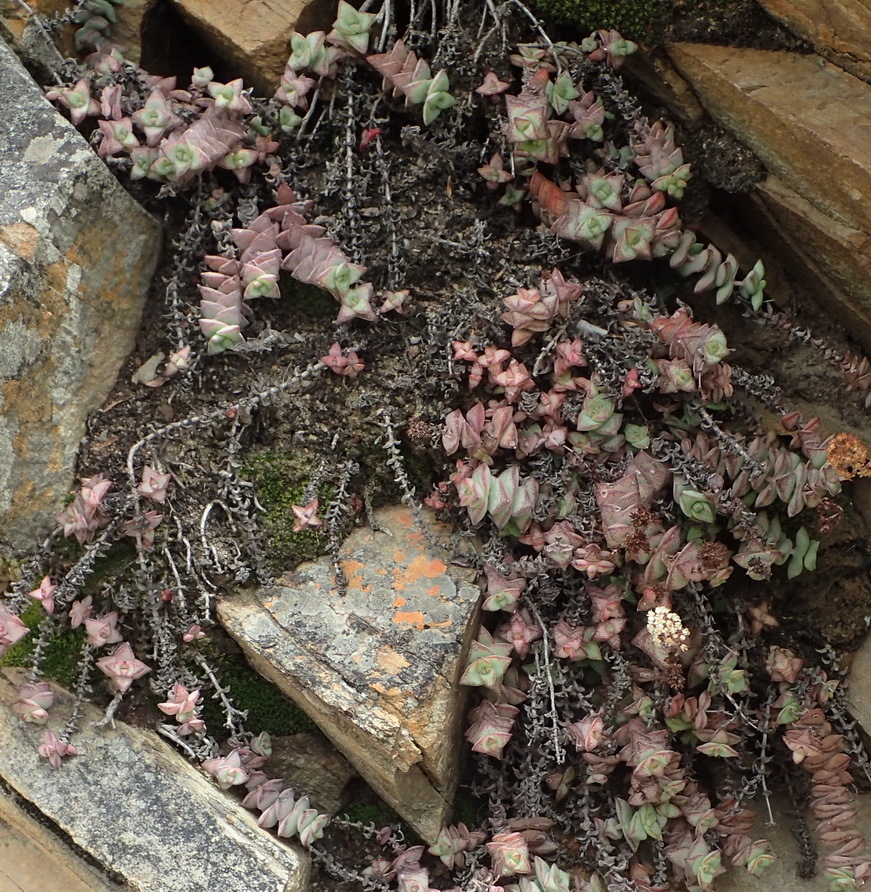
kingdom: Plantae
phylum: Tracheophyta
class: Magnoliopsida
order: Saxifragales
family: Crassulaceae
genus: Crassula
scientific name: Crassula perforata
